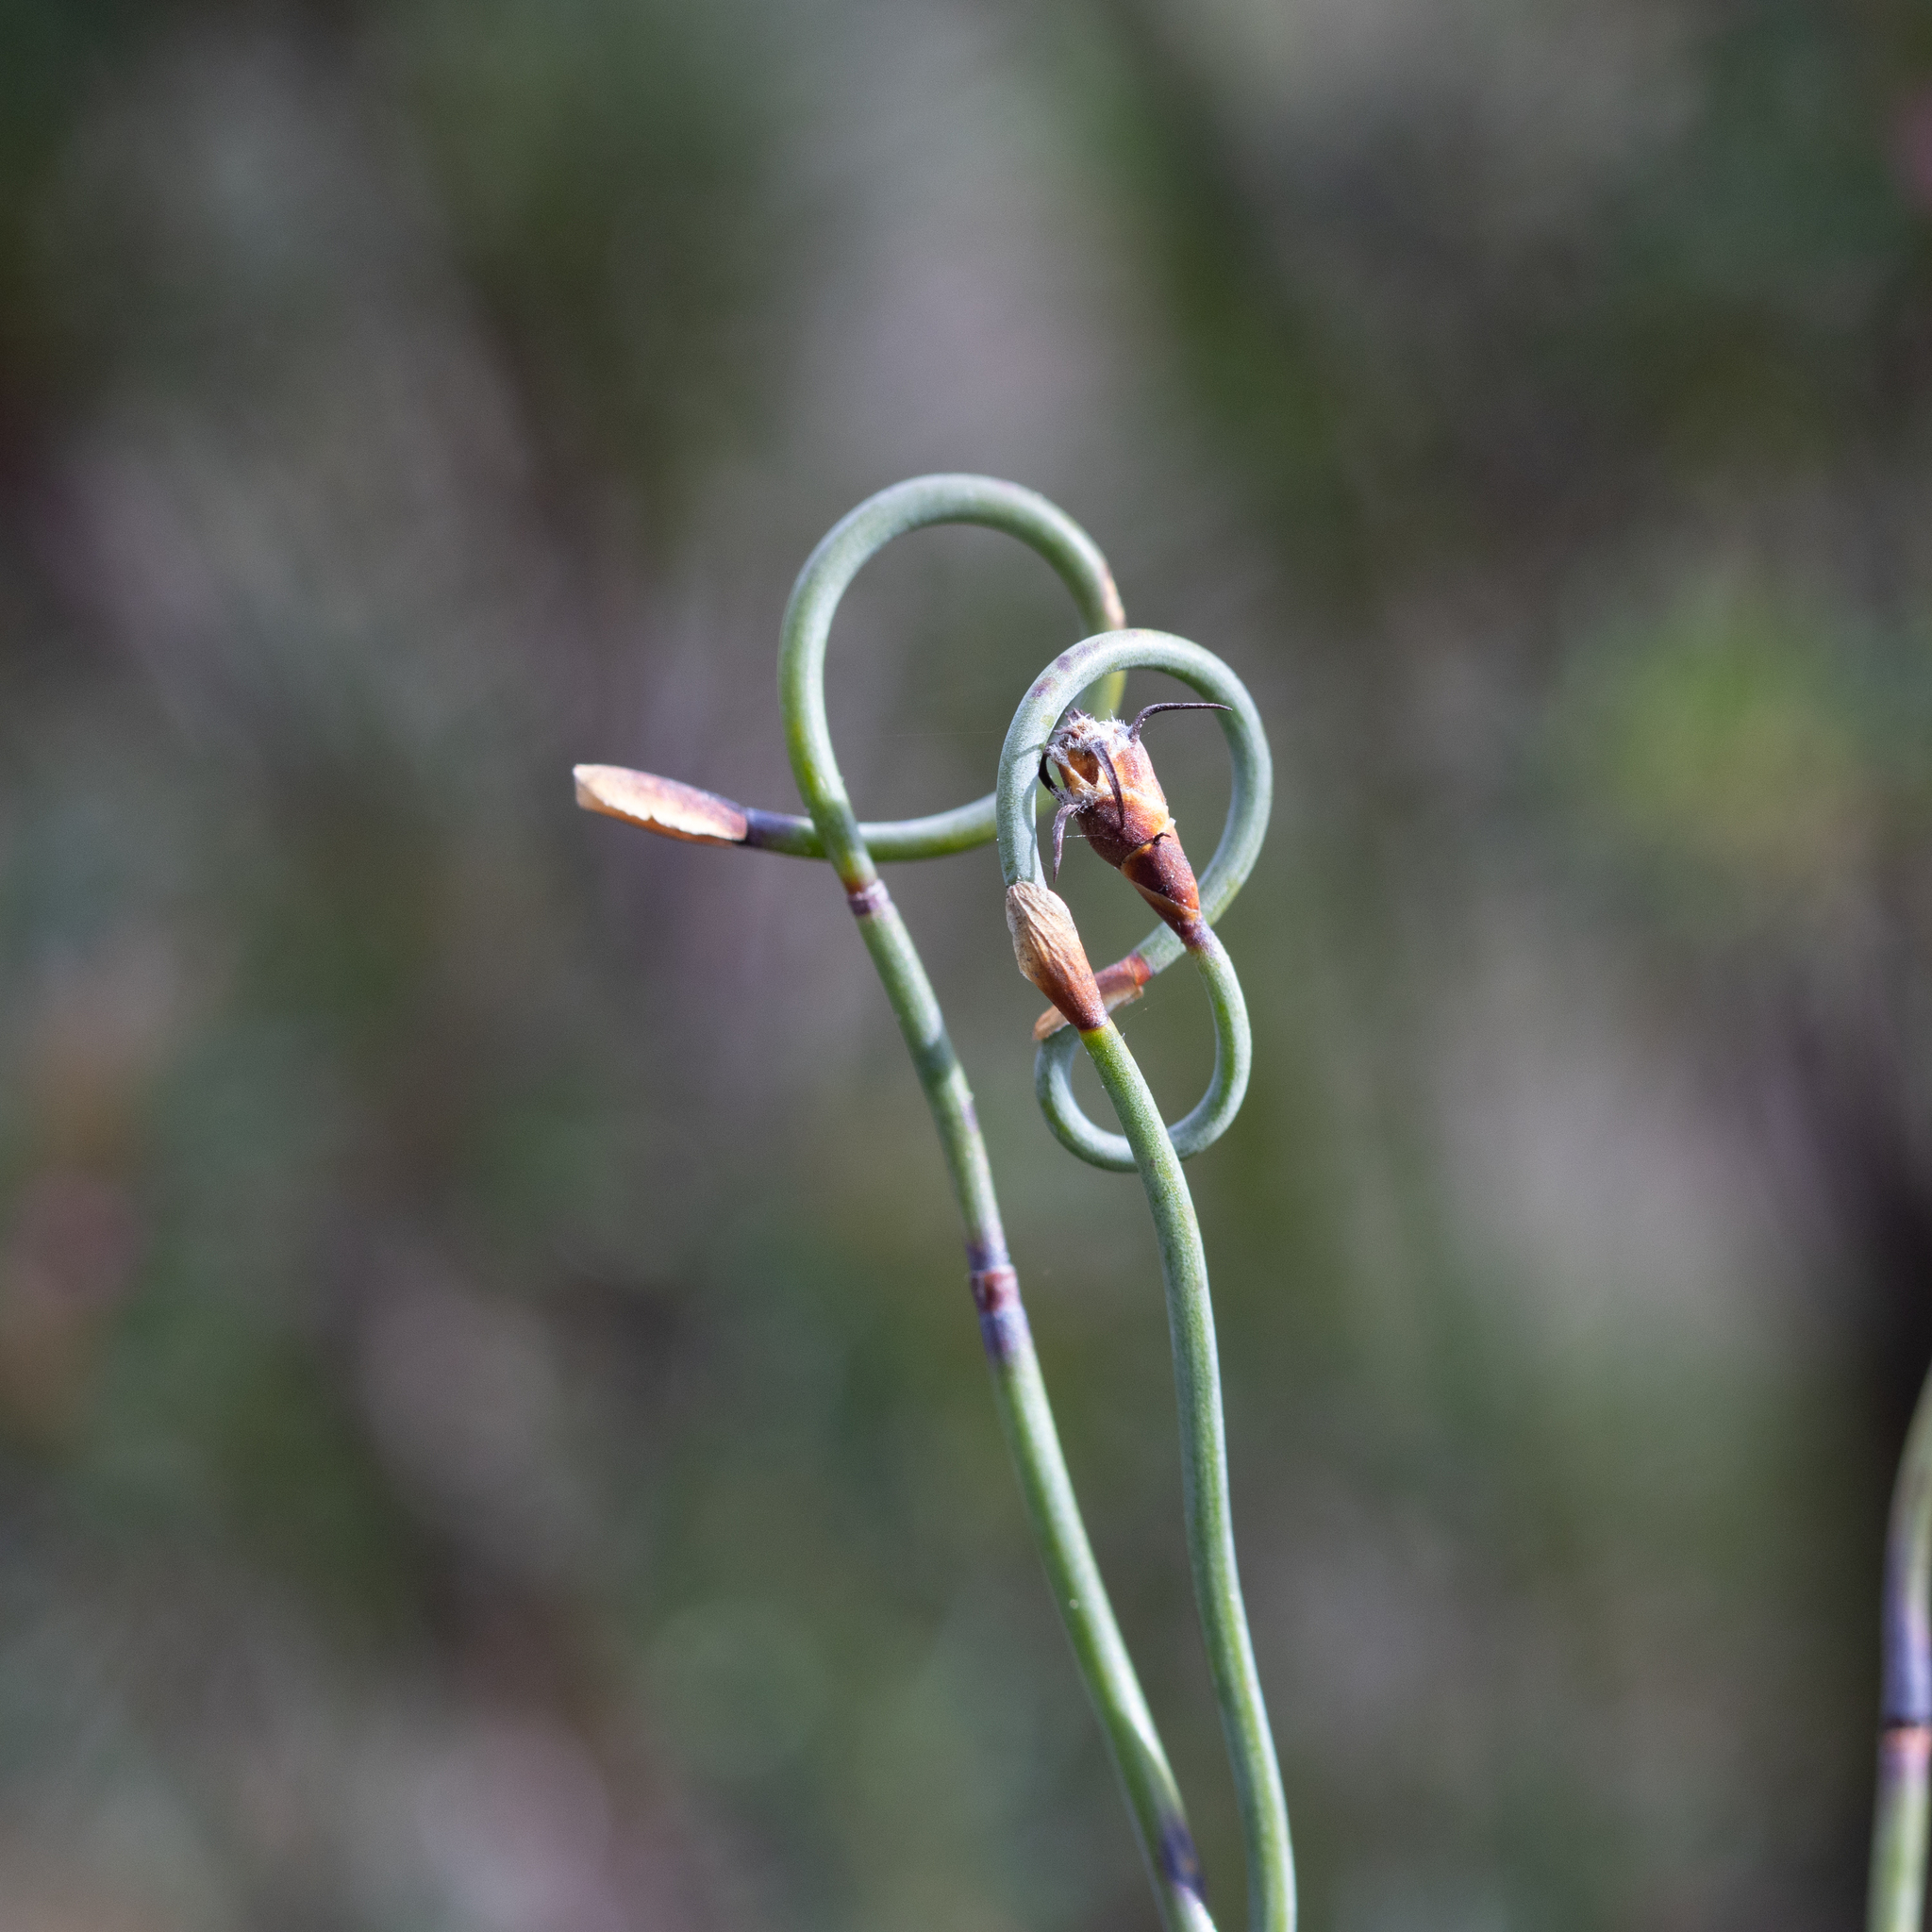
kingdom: Plantae
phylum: Tracheophyta
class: Liliopsida
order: Poales
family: Restionaceae
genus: Lepidobolus
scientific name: Lepidobolus drapetocoleus
